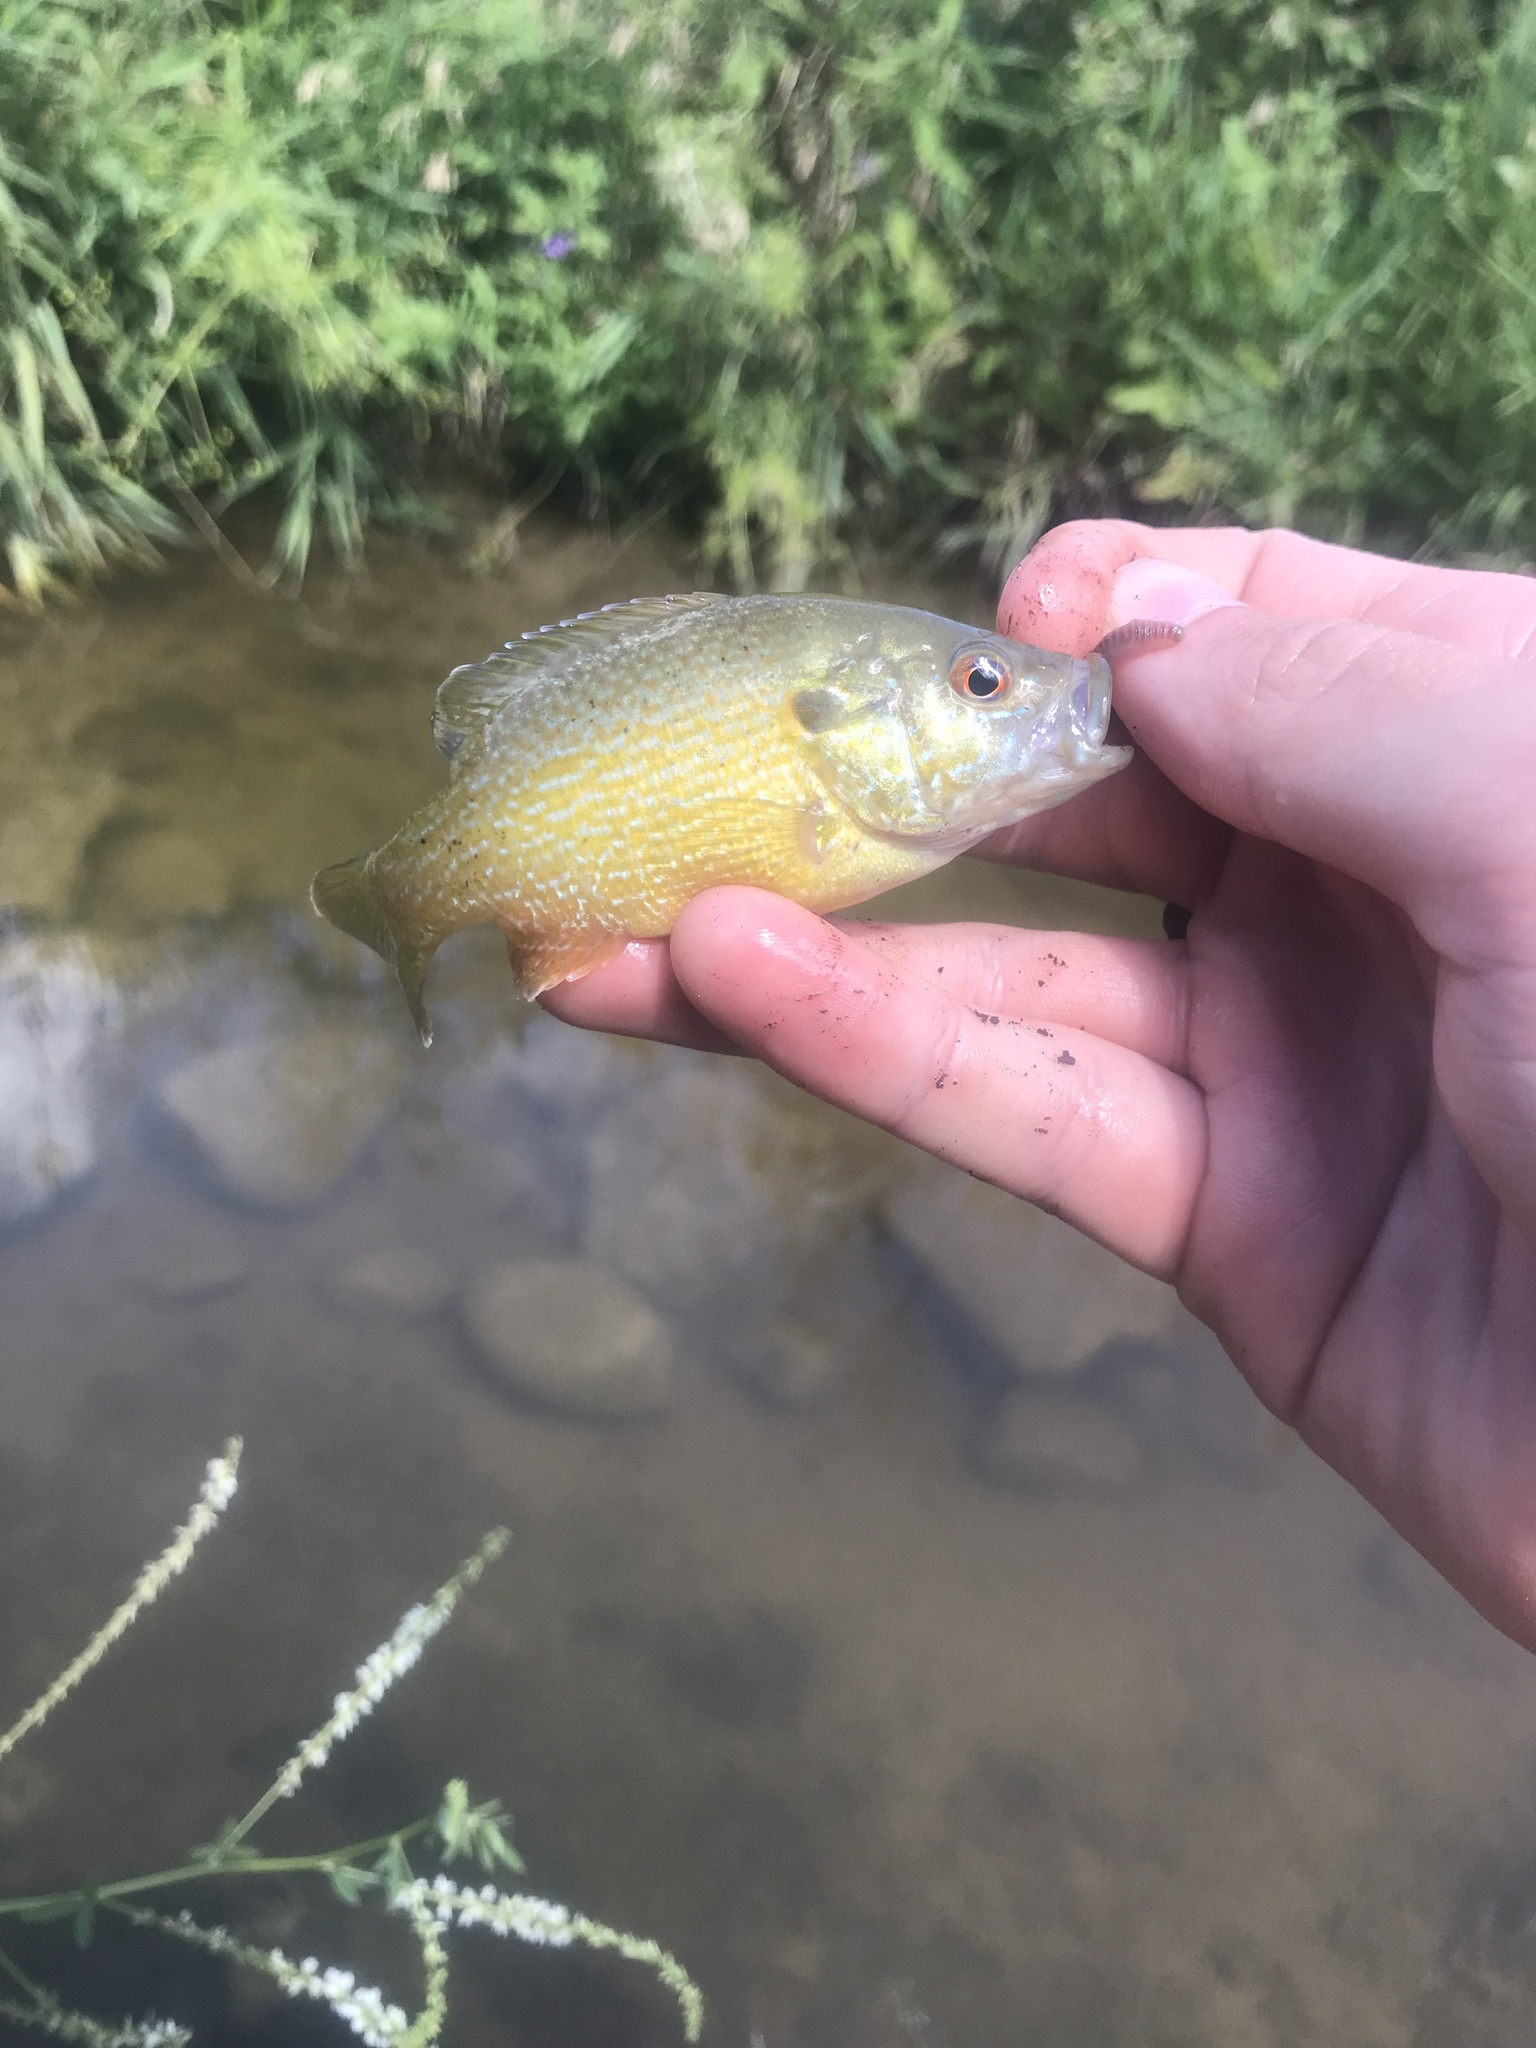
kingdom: Animalia
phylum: Chordata
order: Perciformes
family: Centrarchidae
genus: Lepomis
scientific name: Lepomis cyanellus
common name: Green sunfish
